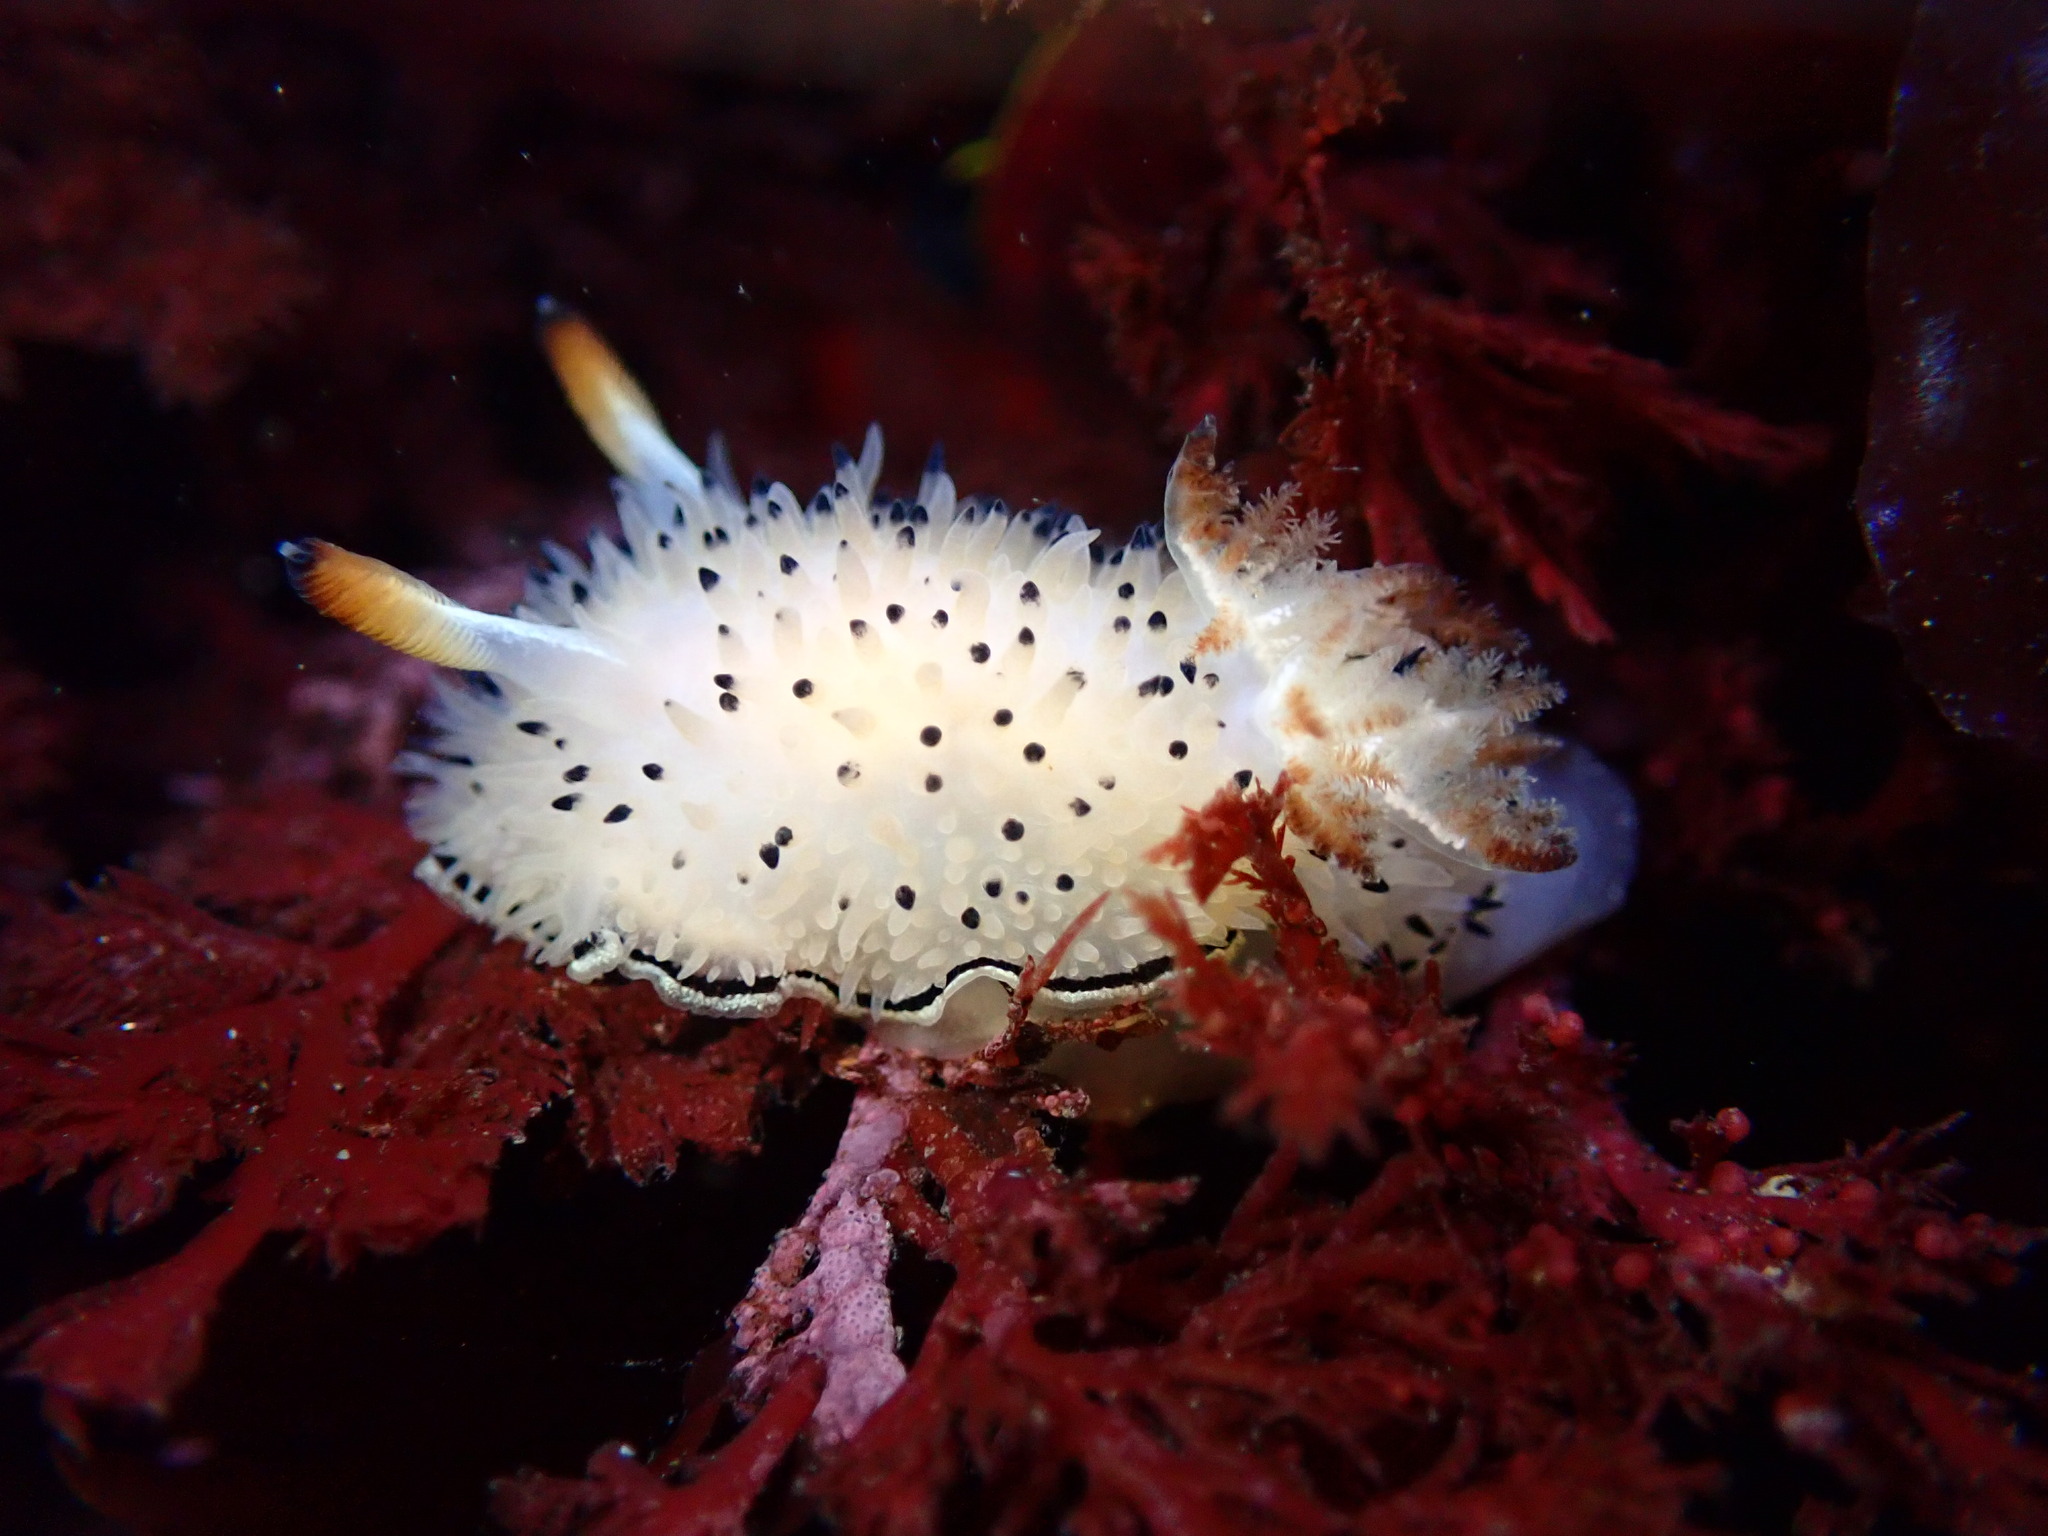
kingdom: Animalia
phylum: Mollusca
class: Gastropoda
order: Nudibranchia
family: Onchidorididae
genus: Acanthodoris
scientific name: Acanthodoris rhodoceras
